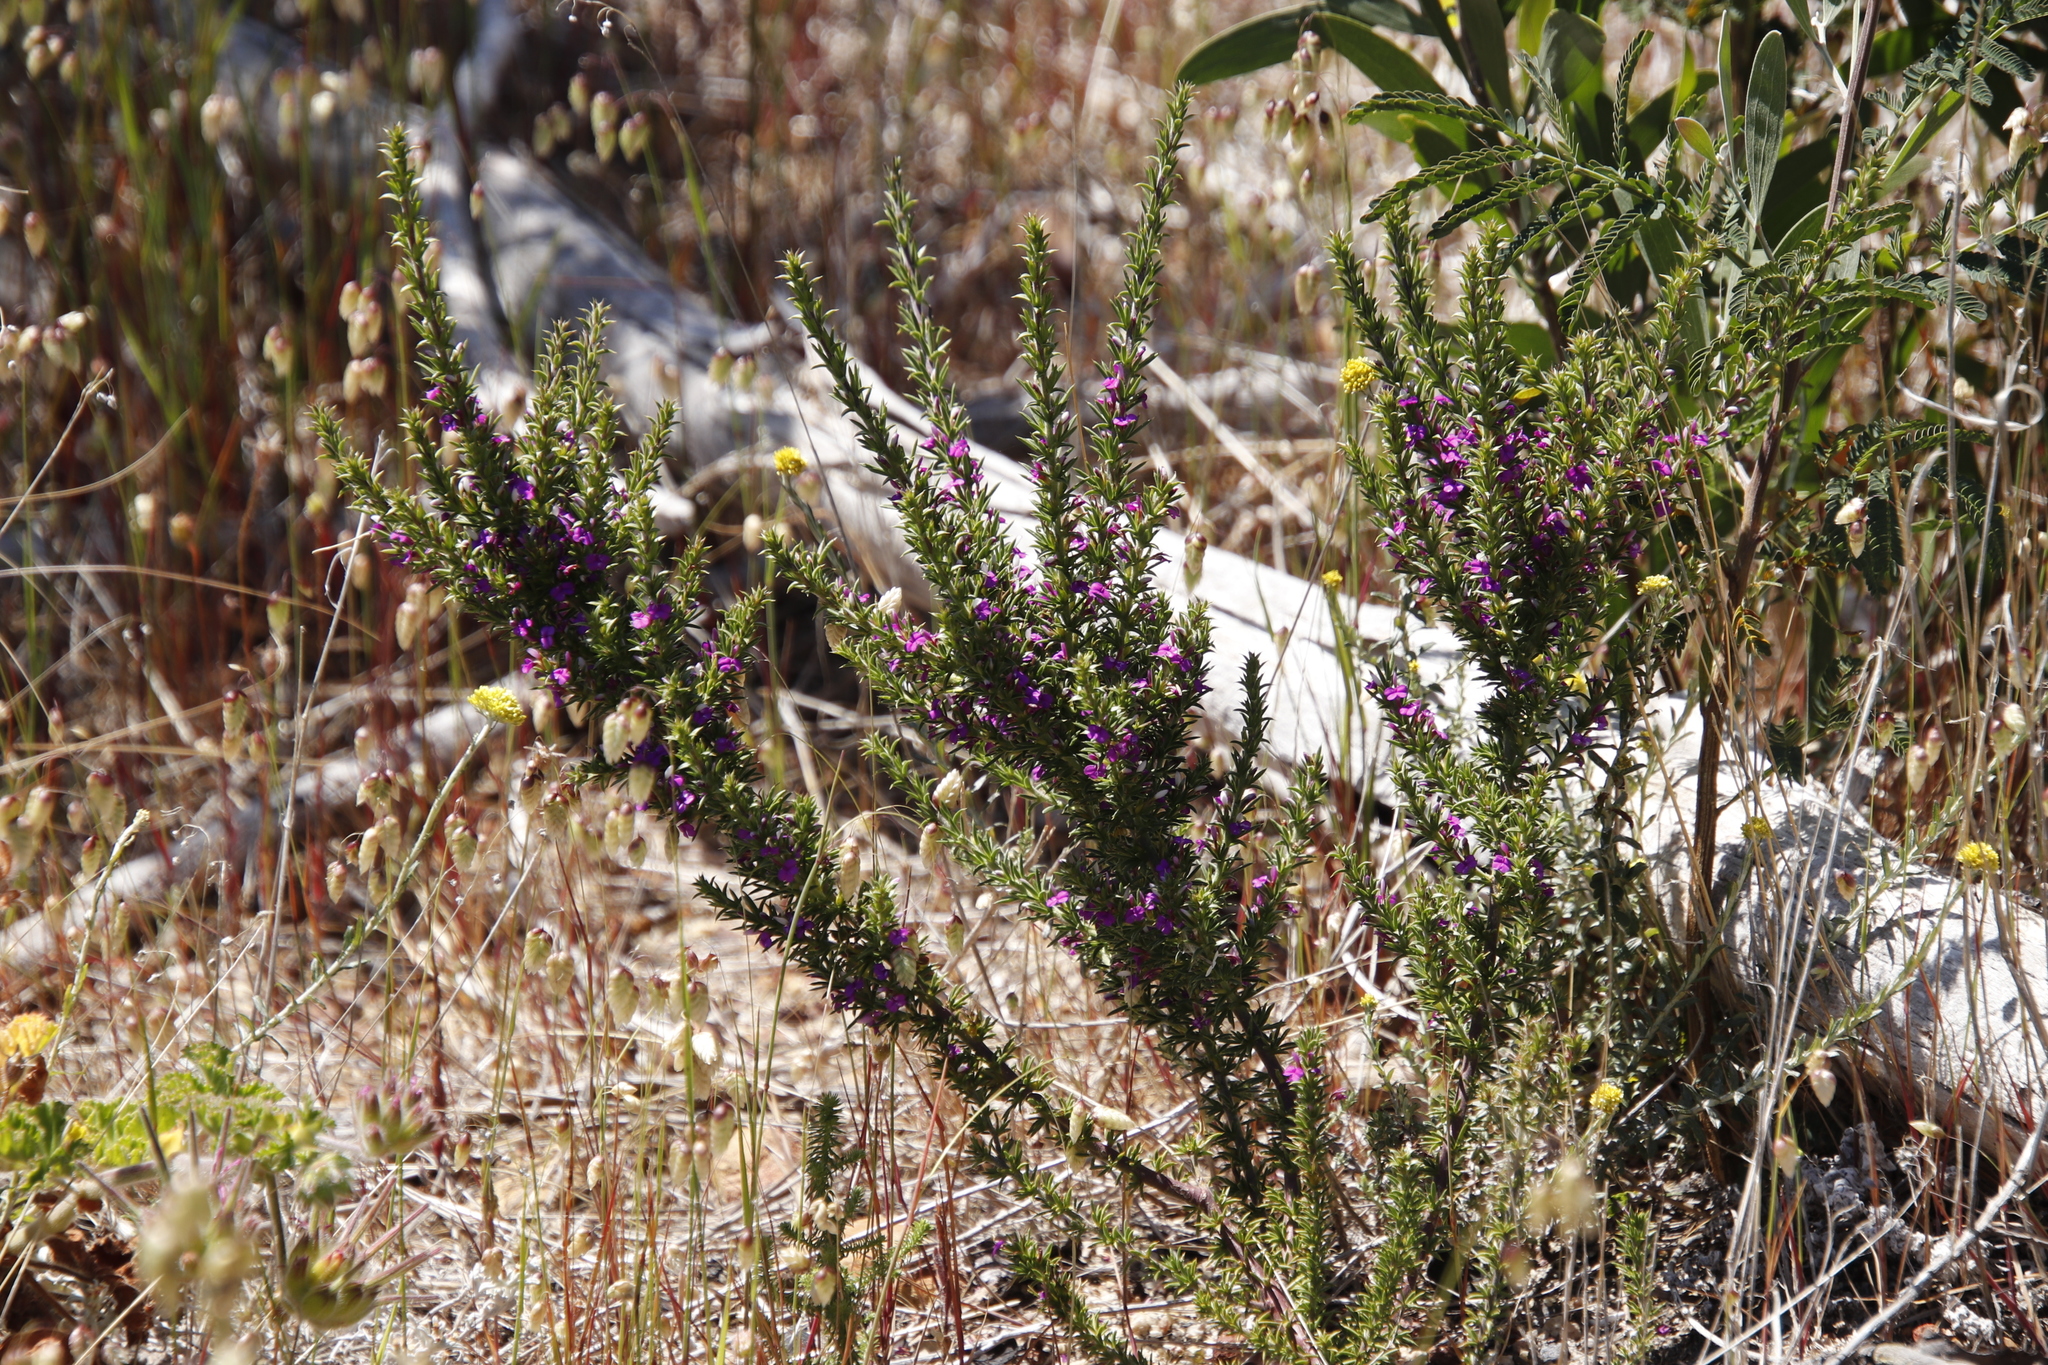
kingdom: Plantae
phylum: Tracheophyta
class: Magnoliopsida
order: Fabales
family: Polygalaceae
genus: Muraltia
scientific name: Muraltia heisteria
